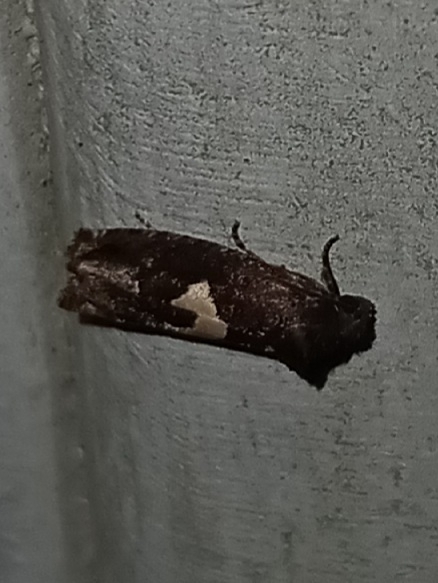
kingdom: Animalia
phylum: Arthropoda
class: Insecta
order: Lepidoptera
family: Tortricidae
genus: Epiblema
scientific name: Epiblema otiosana
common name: Bidens borer moth
